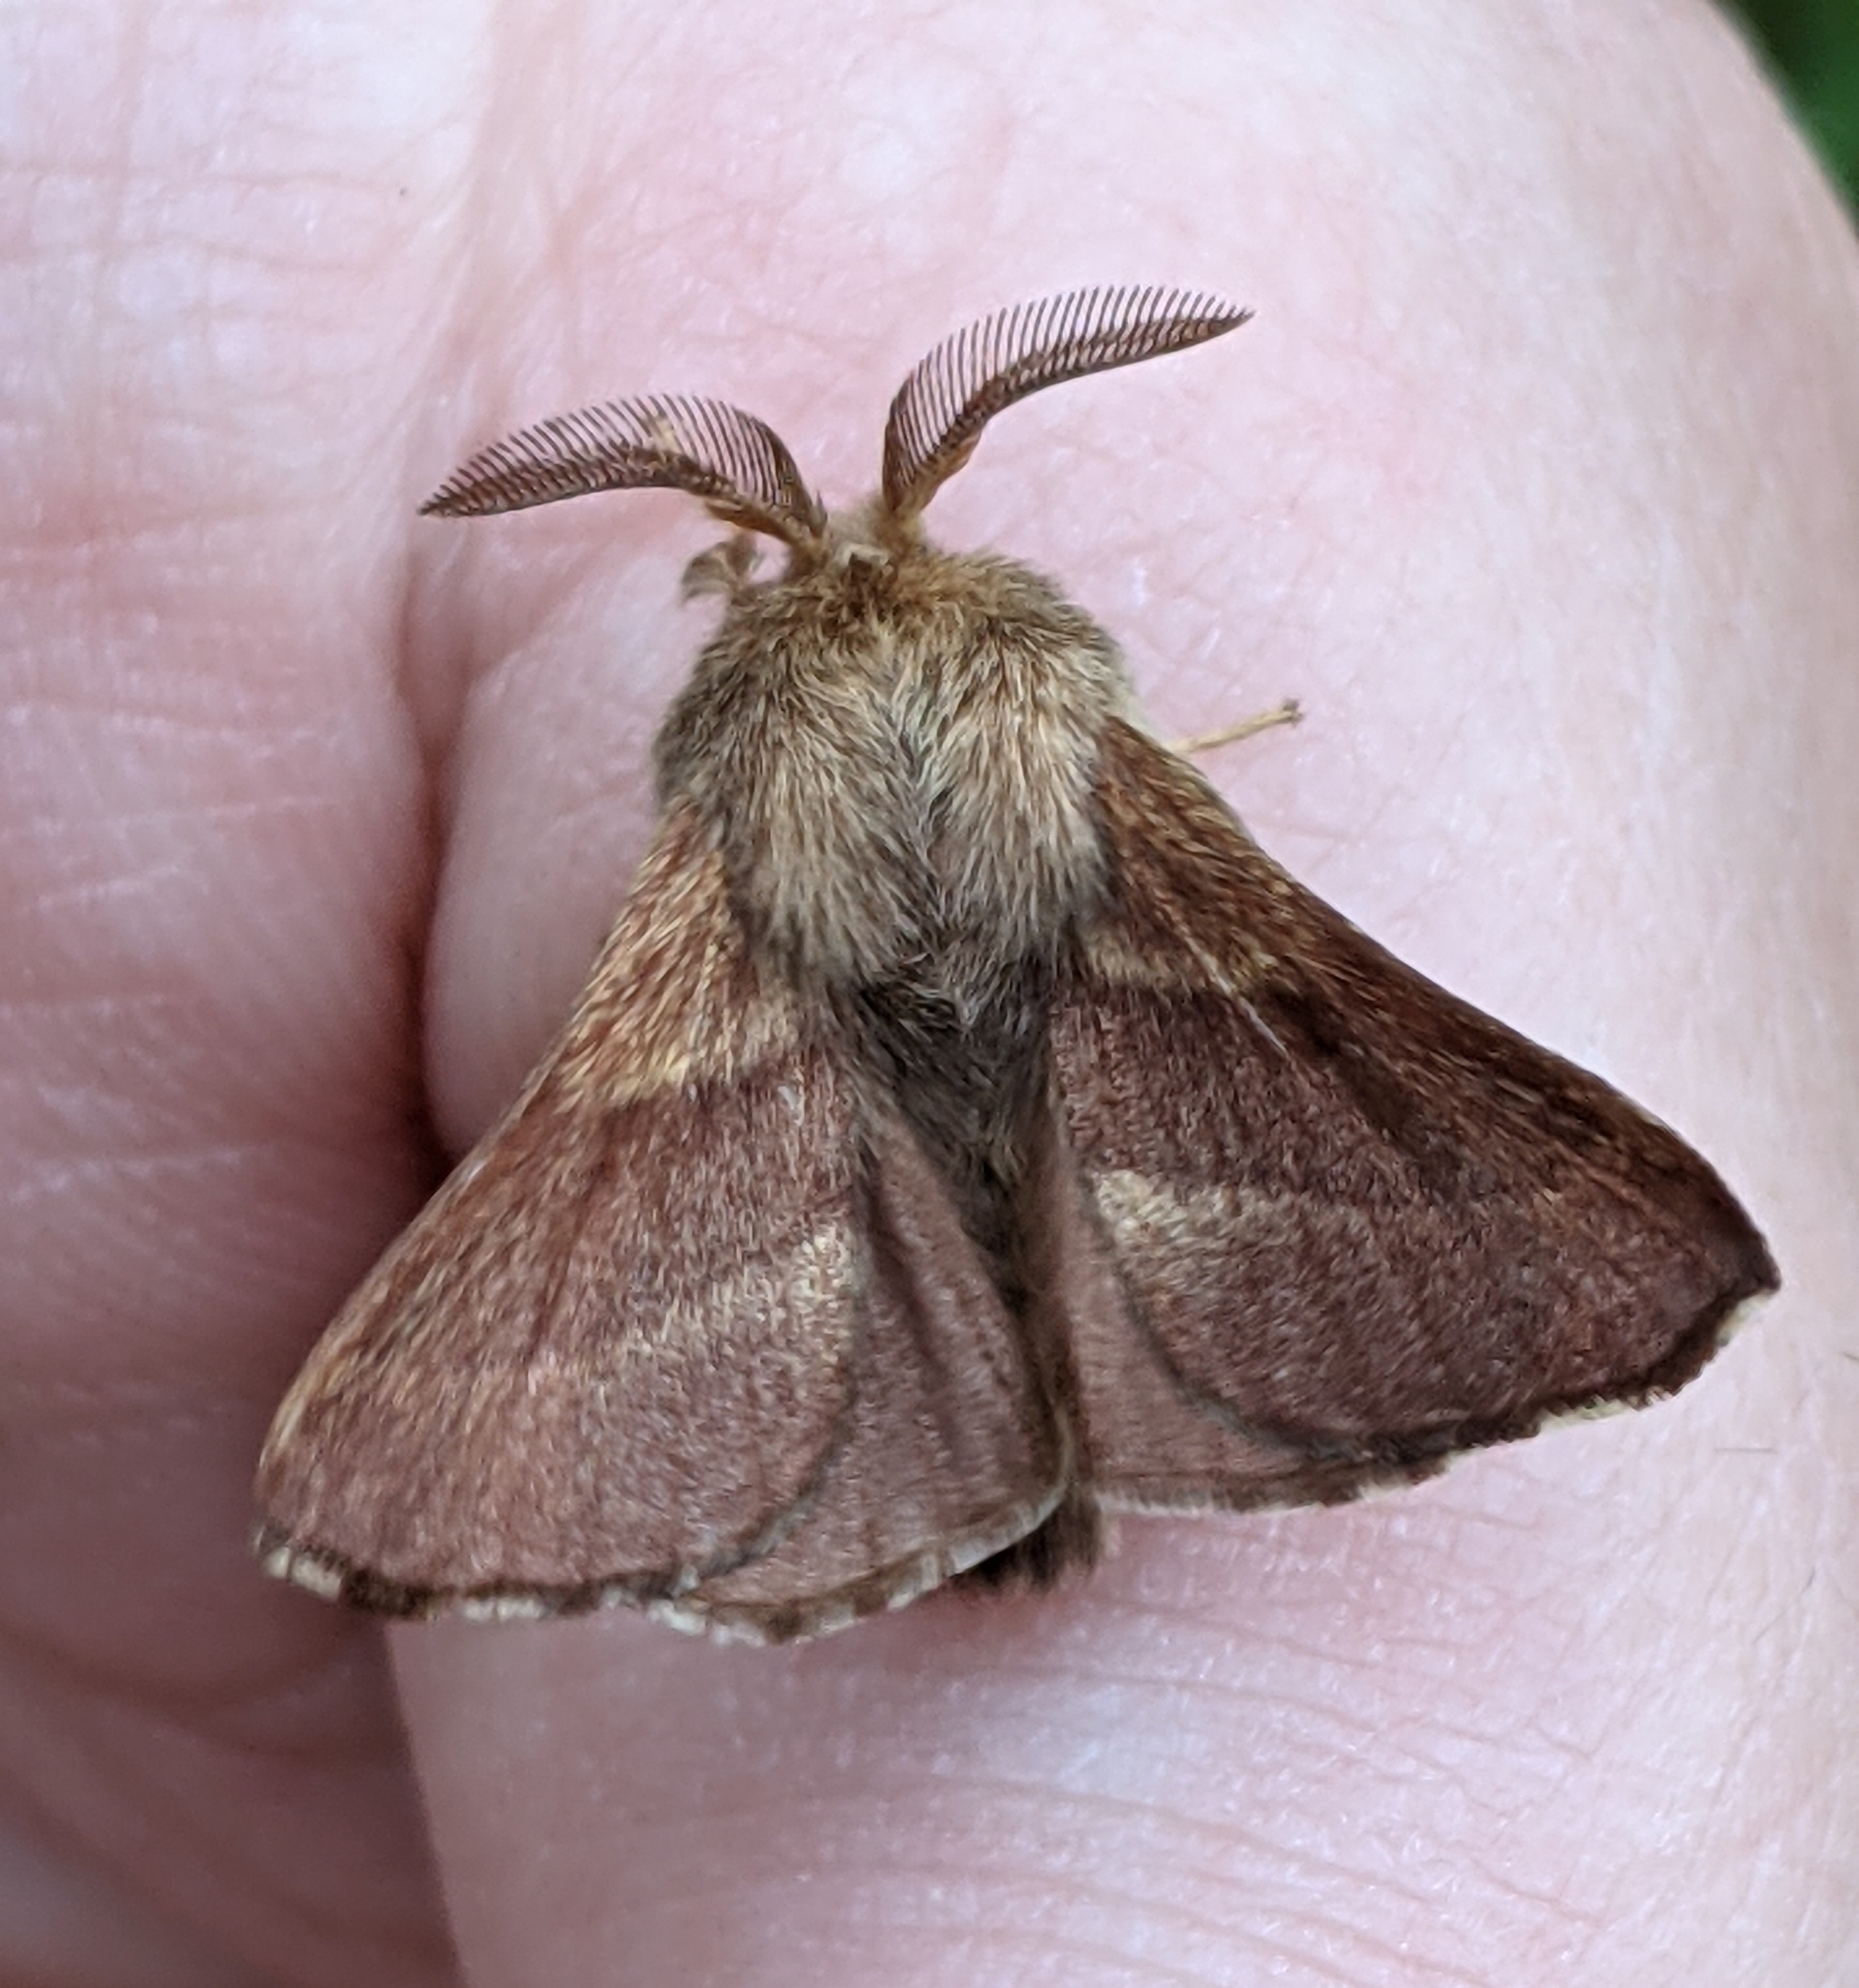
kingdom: Animalia
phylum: Arthropoda
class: Insecta
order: Lepidoptera
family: Lasiocampidae
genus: Malacosoma
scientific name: Malacosoma californica
